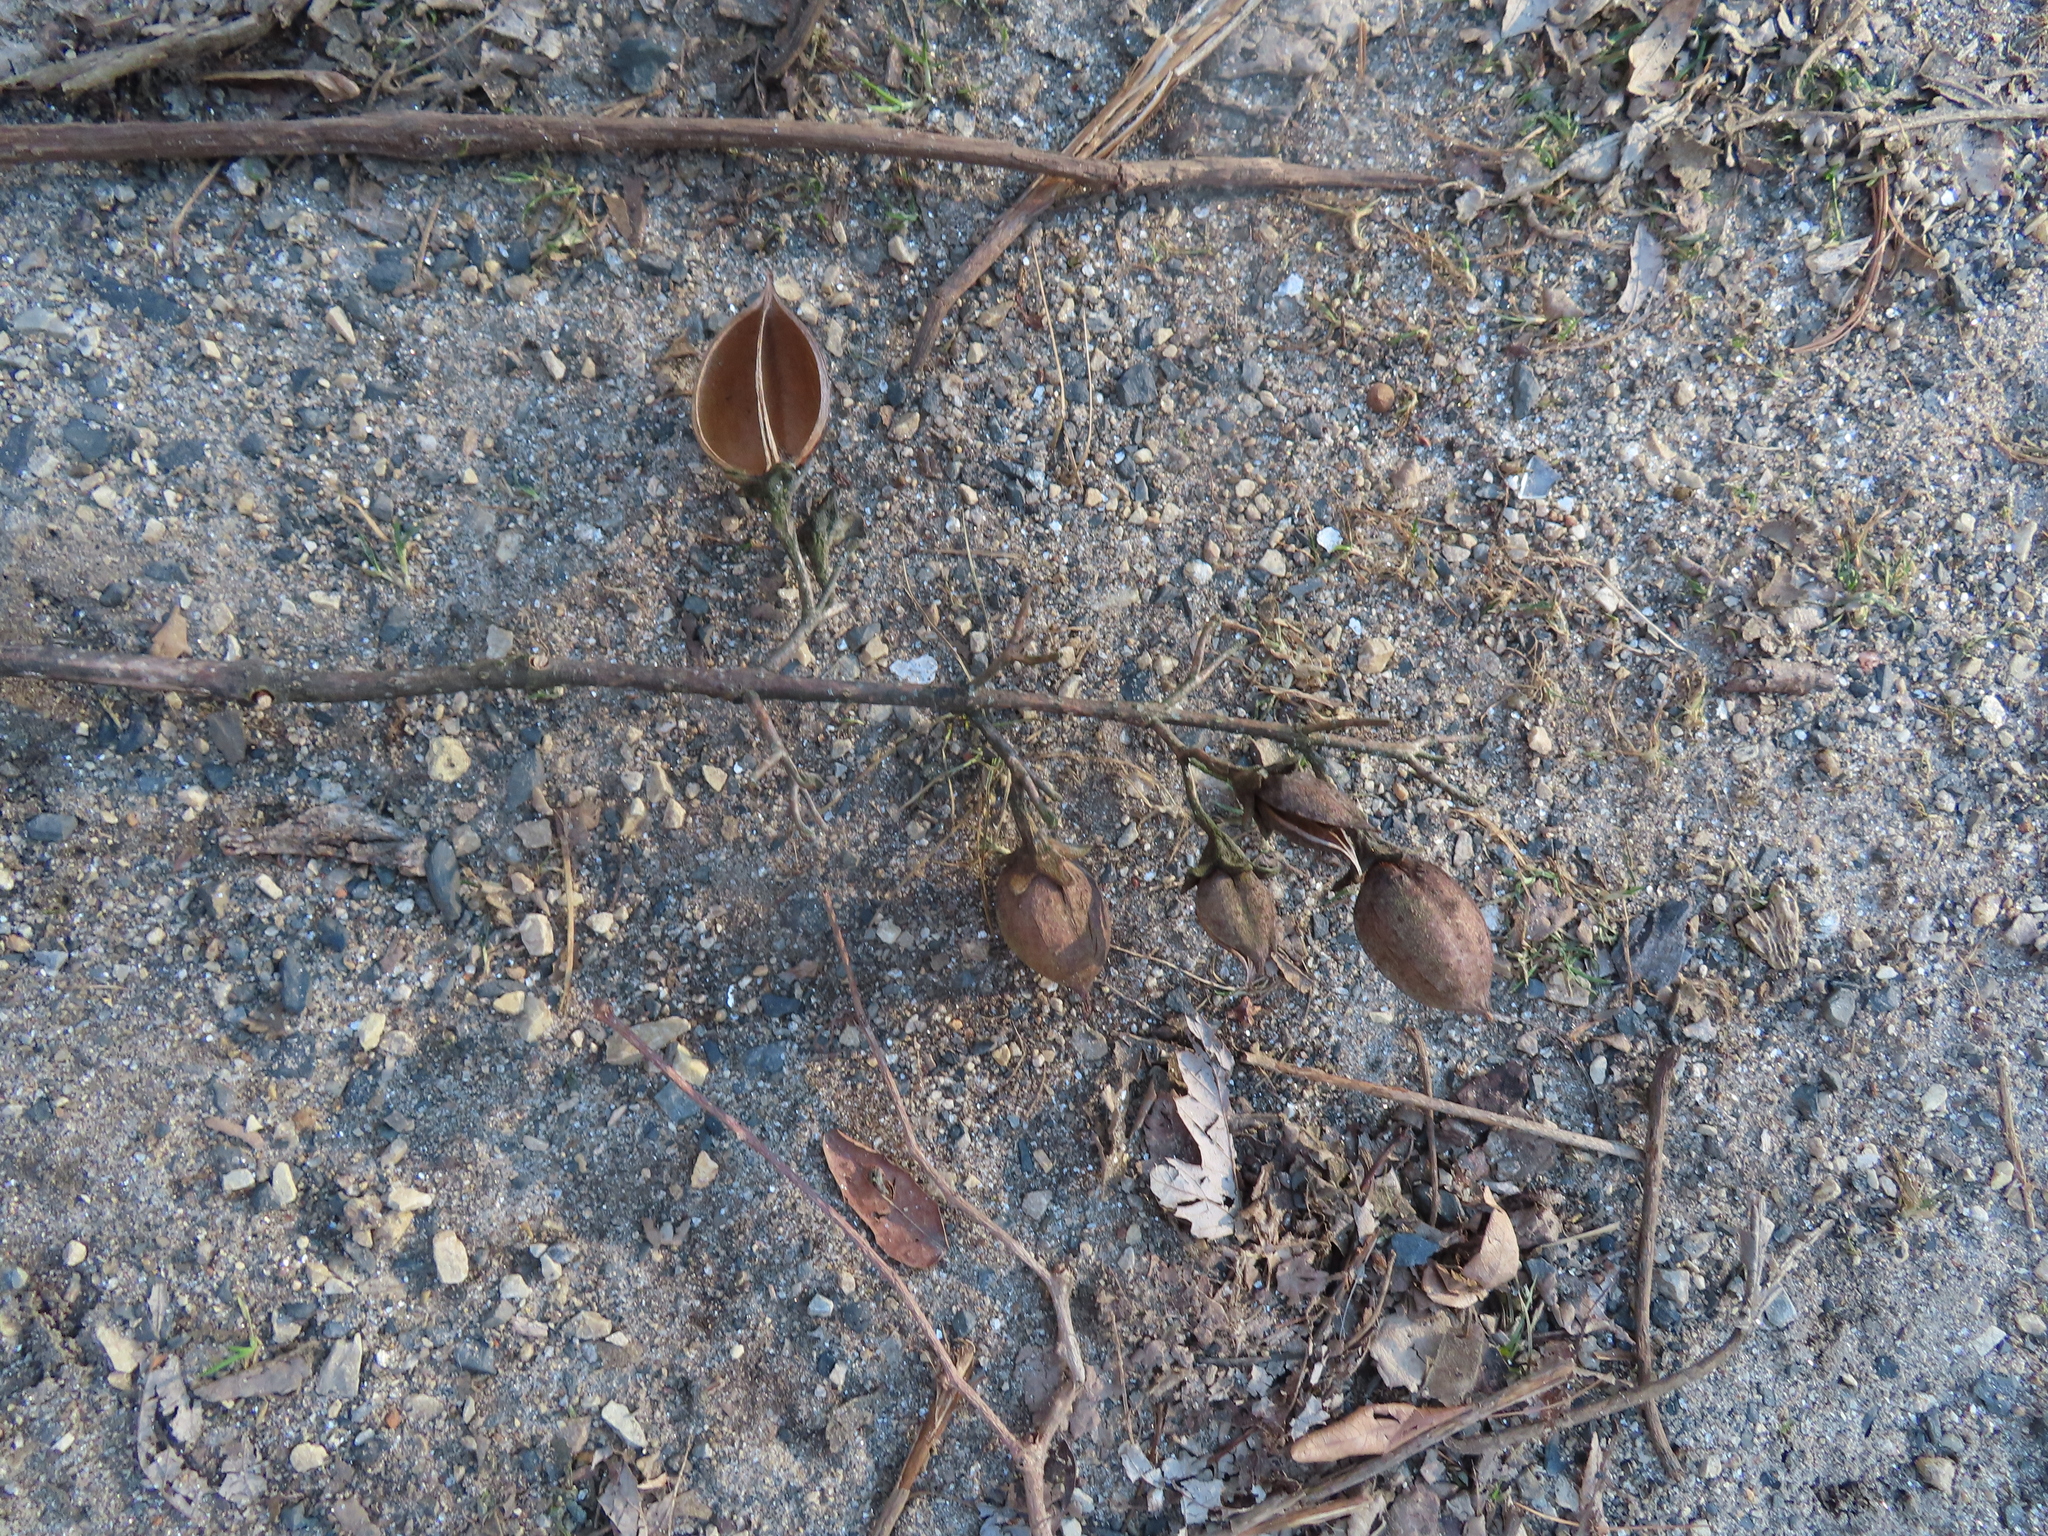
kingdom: Plantae
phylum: Tracheophyta
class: Magnoliopsida
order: Lamiales
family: Paulowniaceae
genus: Paulownia
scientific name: Paulownia tomentosa
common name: Foxglove-tree
